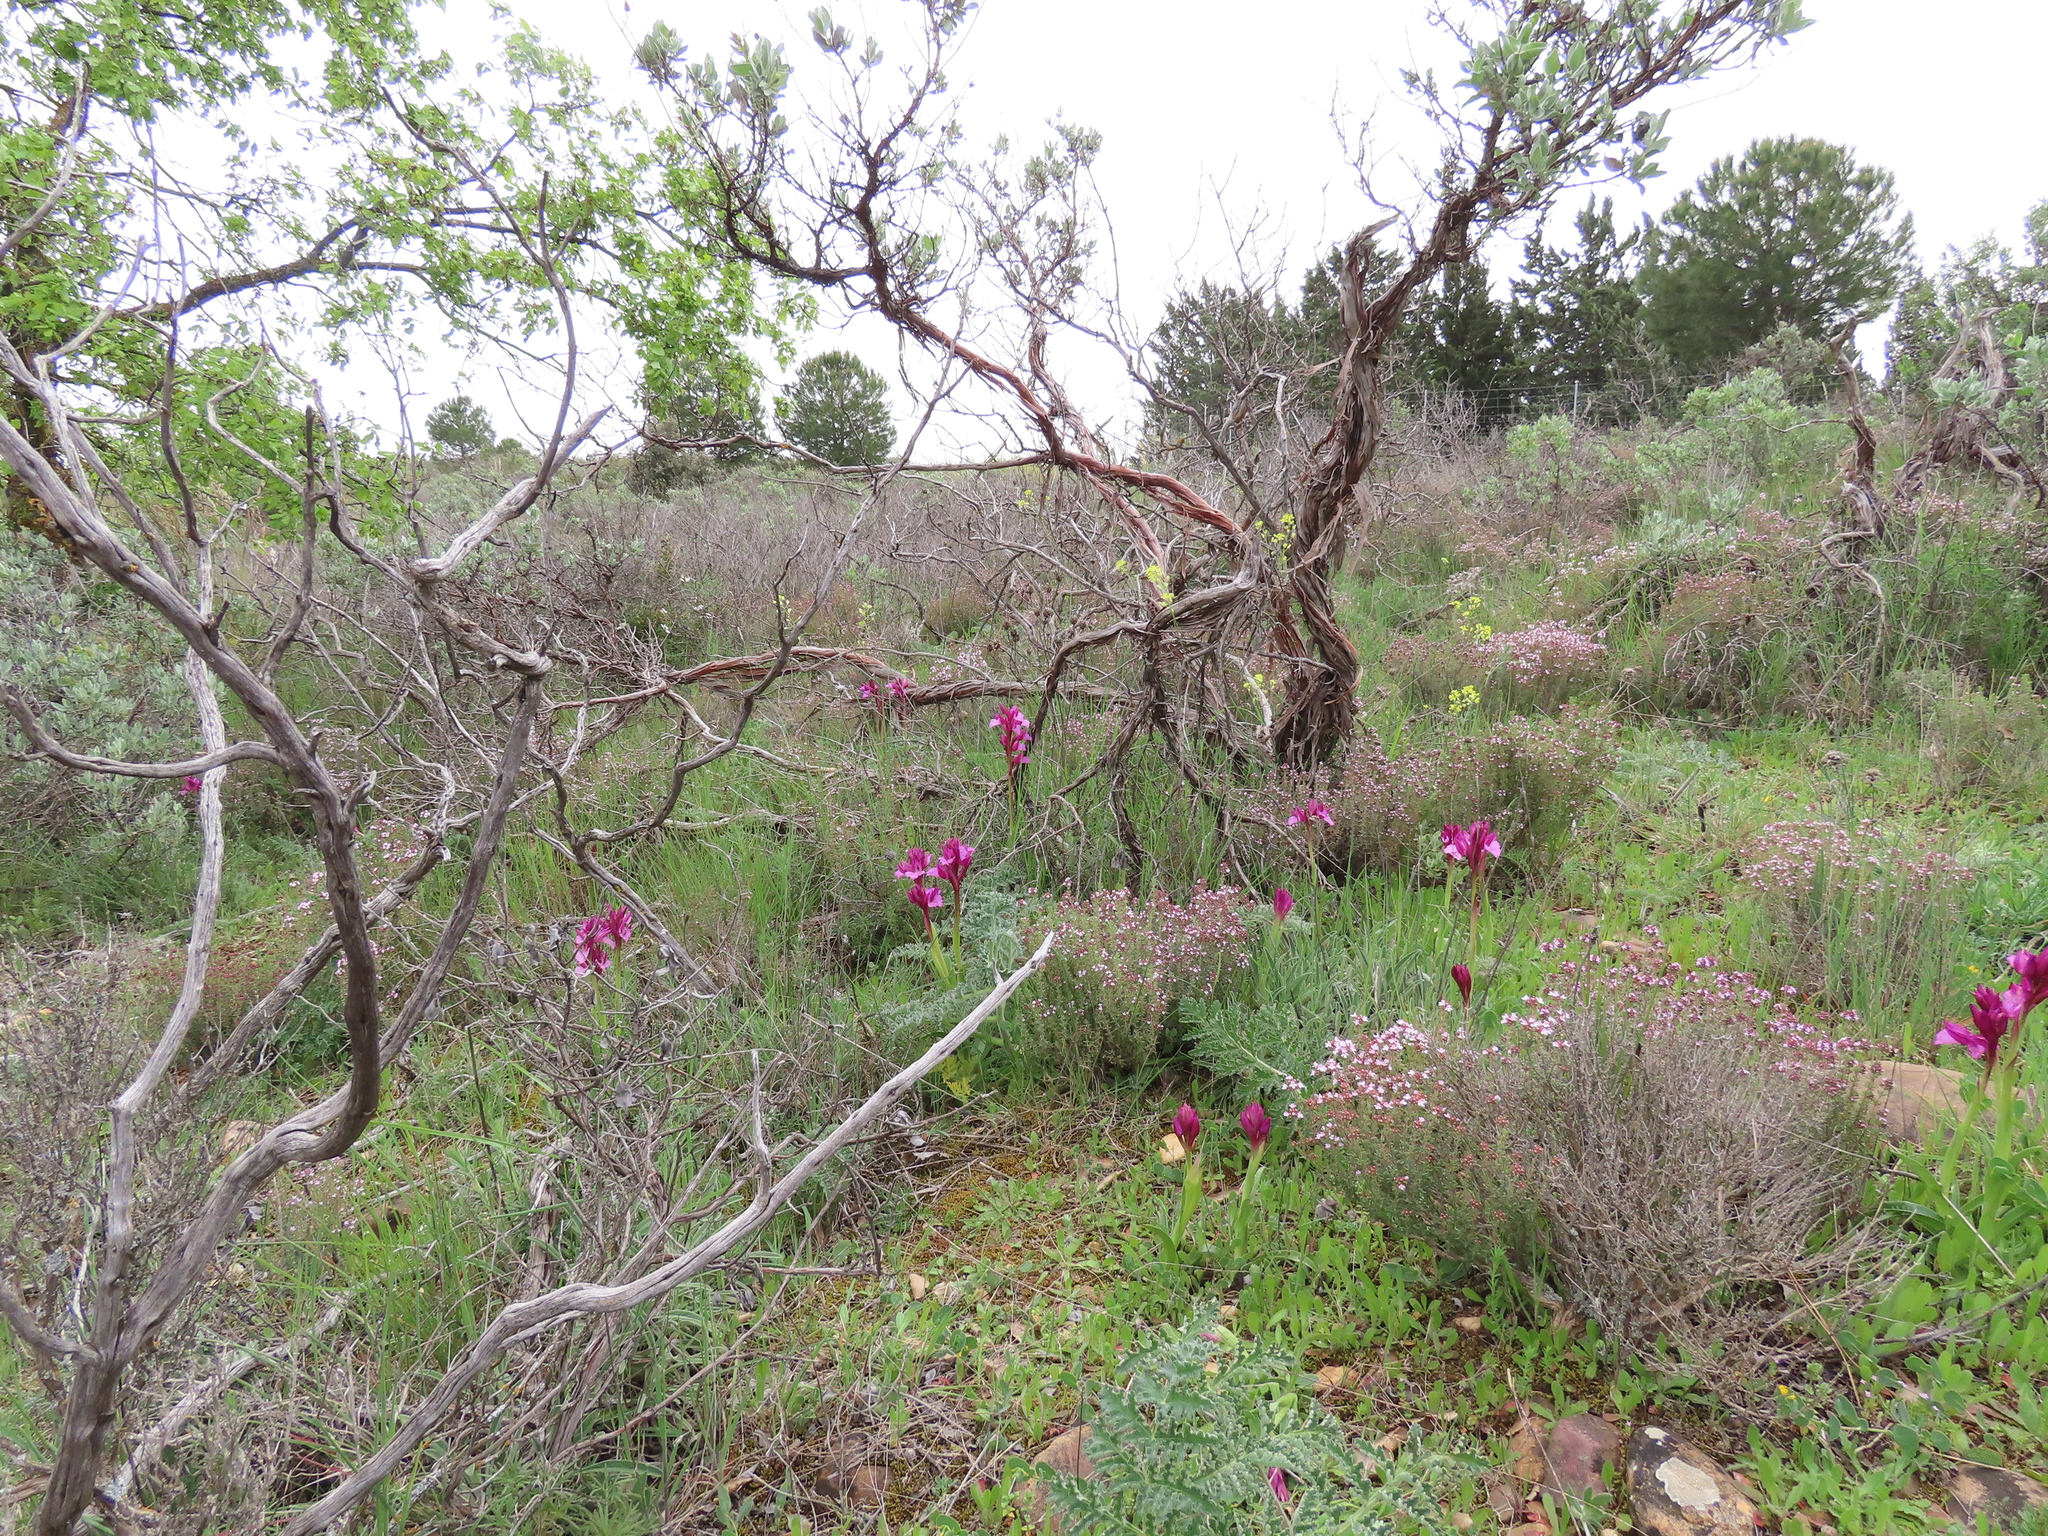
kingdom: Plantae
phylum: Tracheophyta
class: Liliopsida
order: Asparagales
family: Orchidaceae
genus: Anacamptis
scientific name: Anacamptis papilionacea
